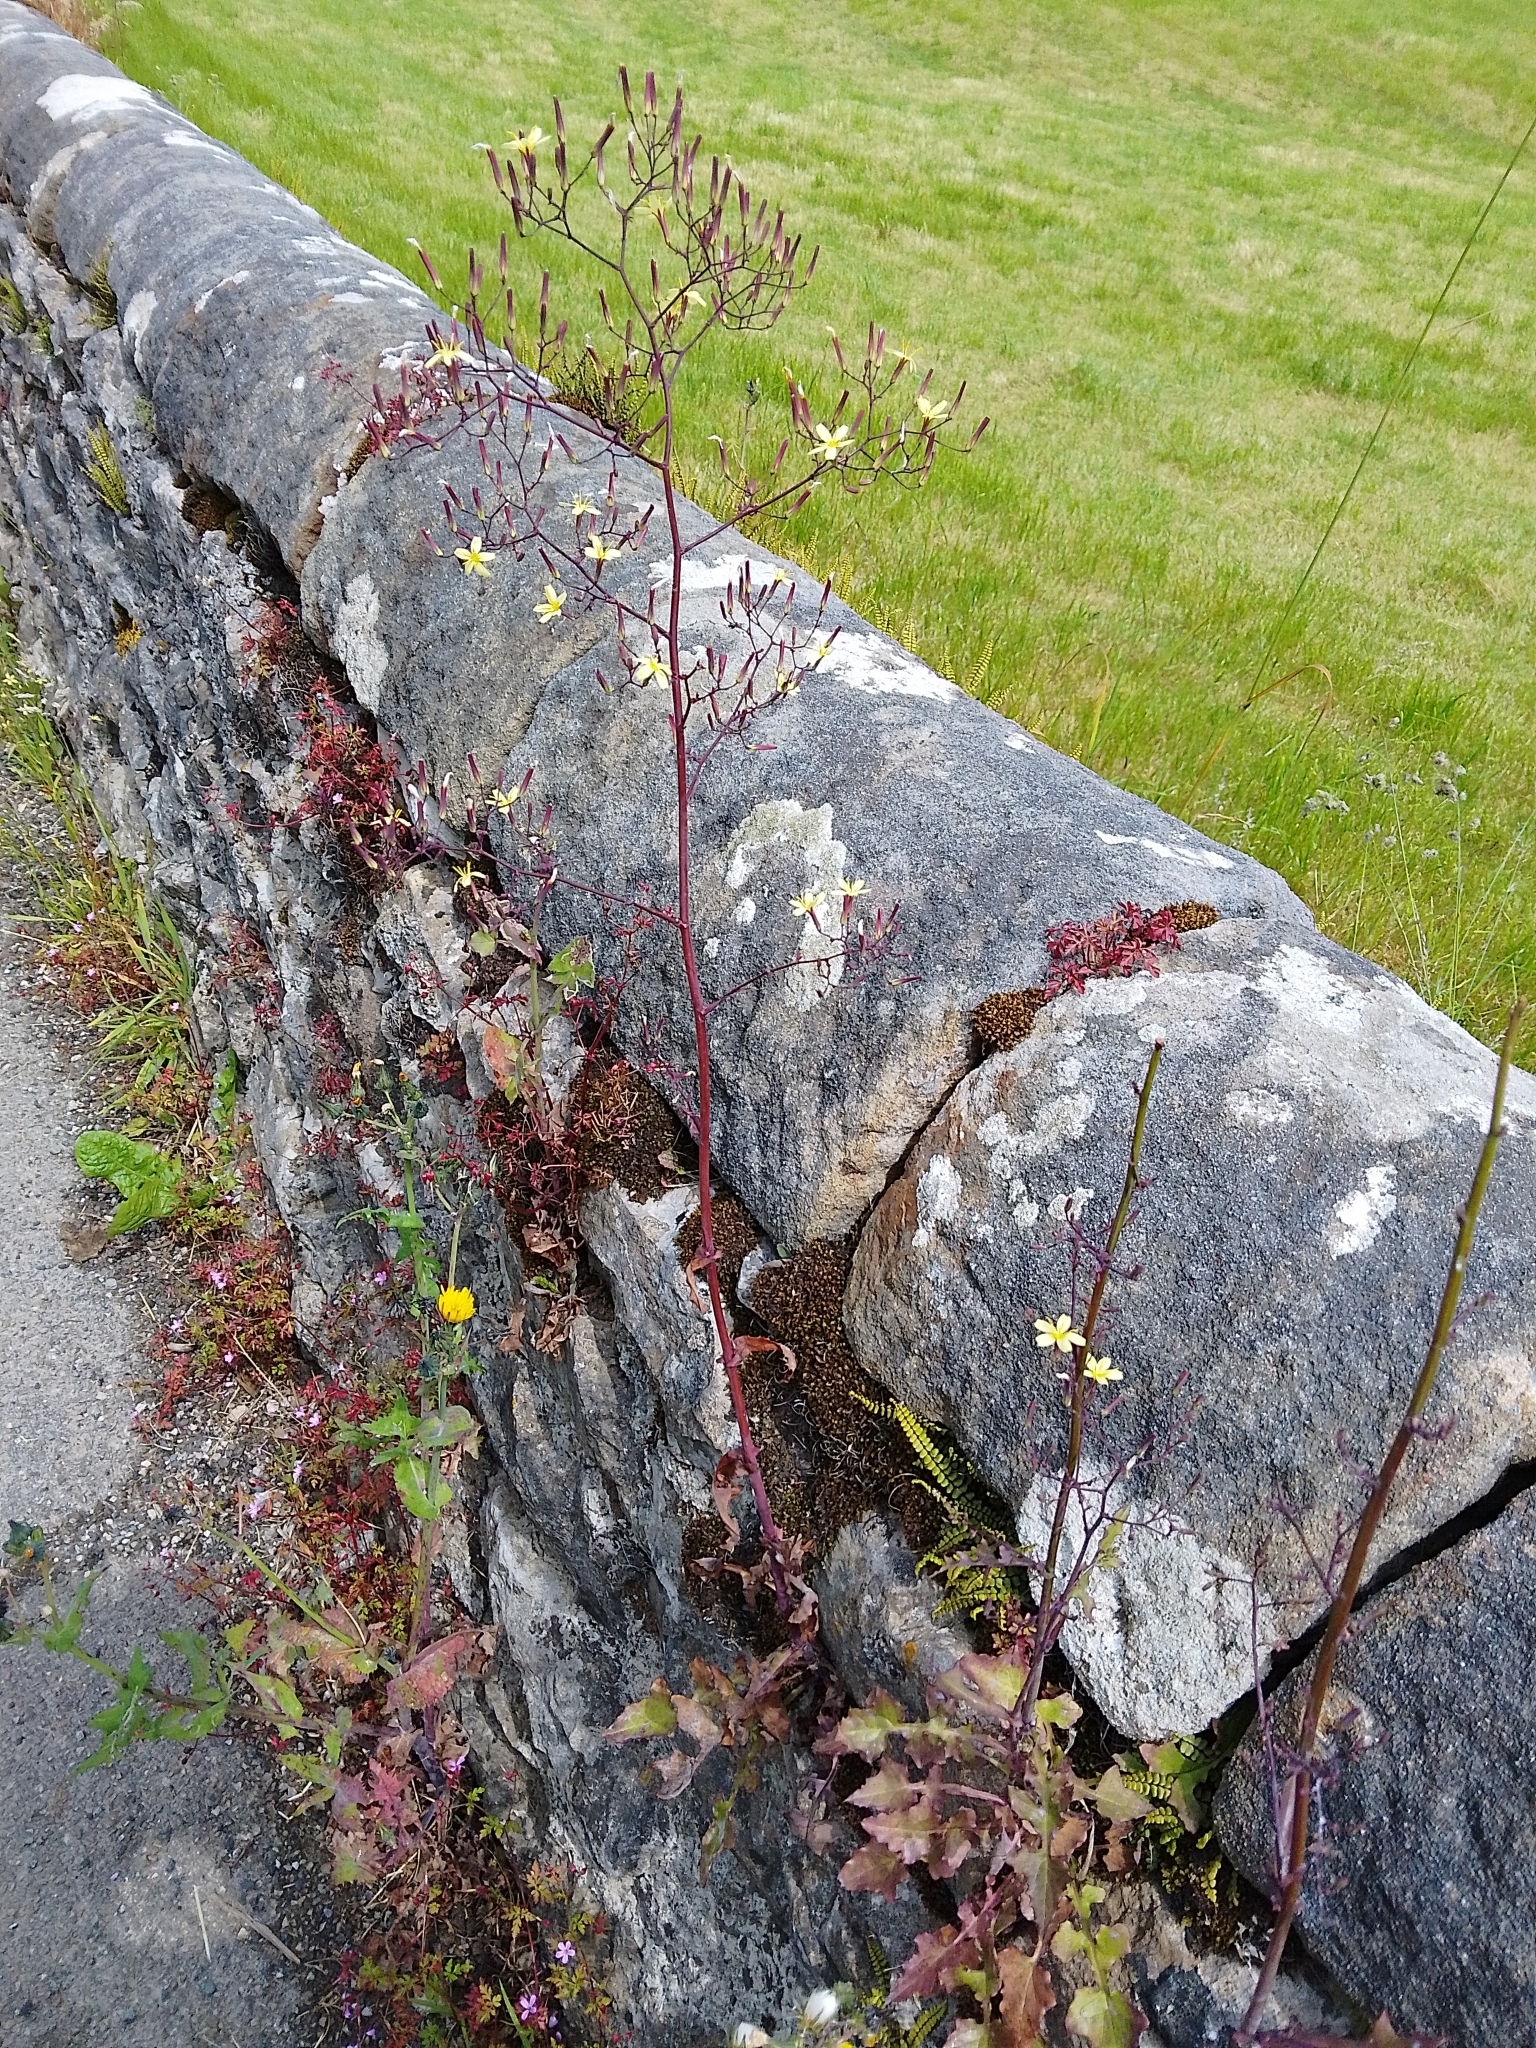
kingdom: Plantae
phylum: Tracheophyta
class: Magnoliopsida
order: Asterales
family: Asteraceae
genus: Mycelis
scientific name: Mycelis muralis
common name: Wall lettuce
